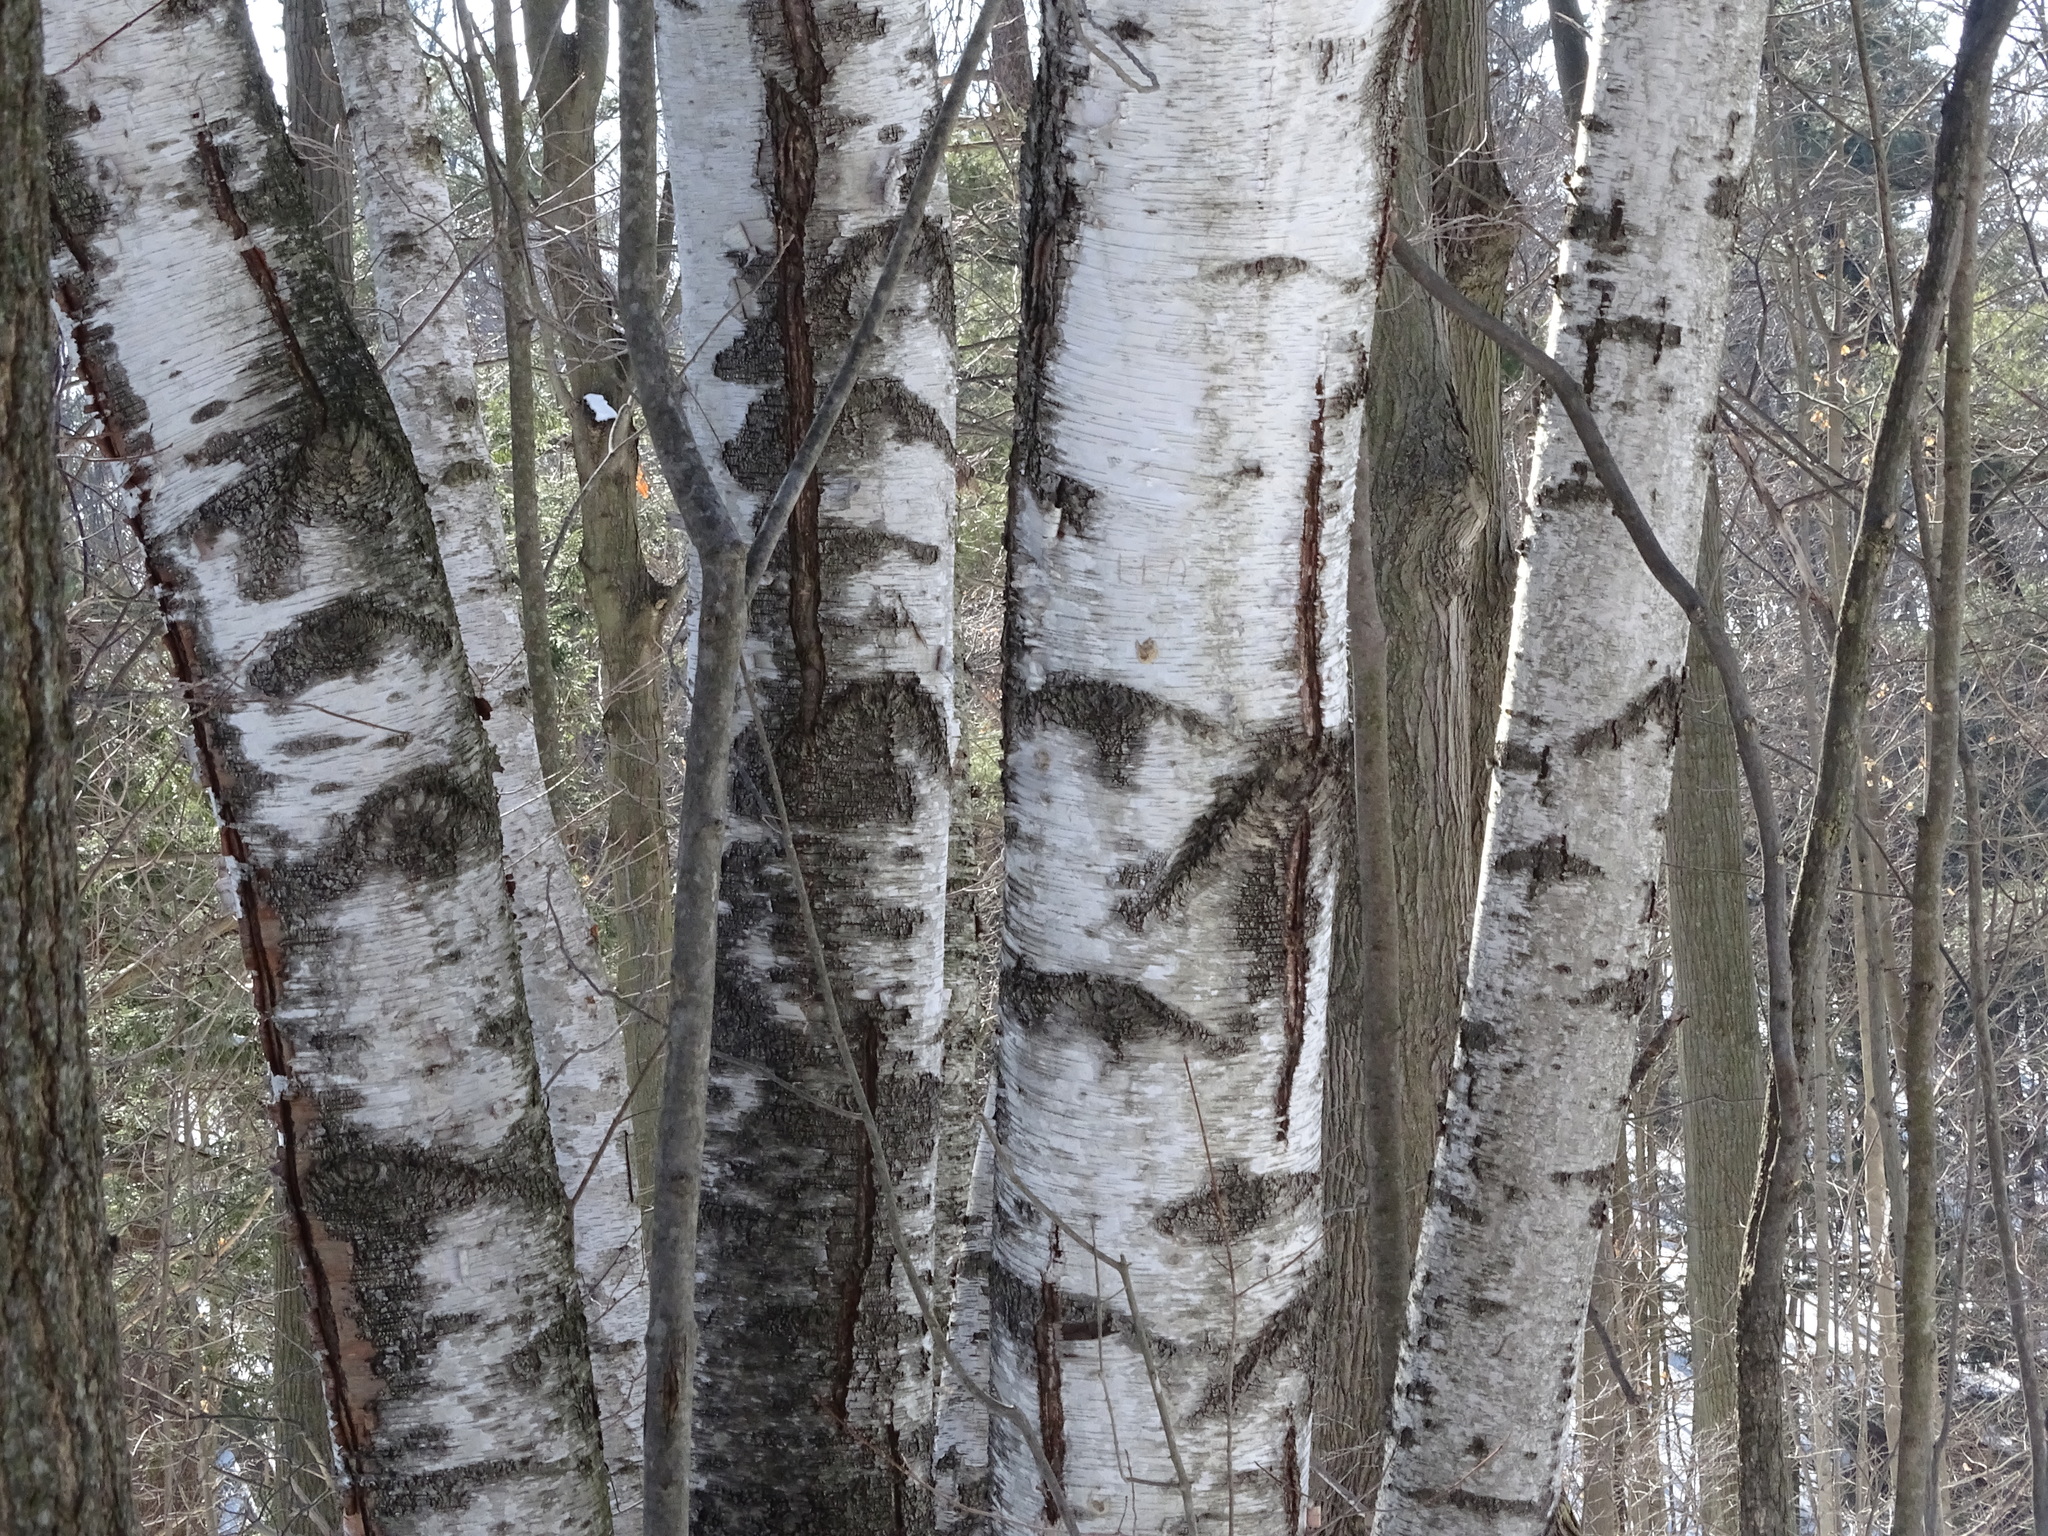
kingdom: Plantae
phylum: Tracheophyta
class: Magnoliopsida
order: Fagales
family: Betulaceae
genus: Betula
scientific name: Betula papyrifera
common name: Paper birch
